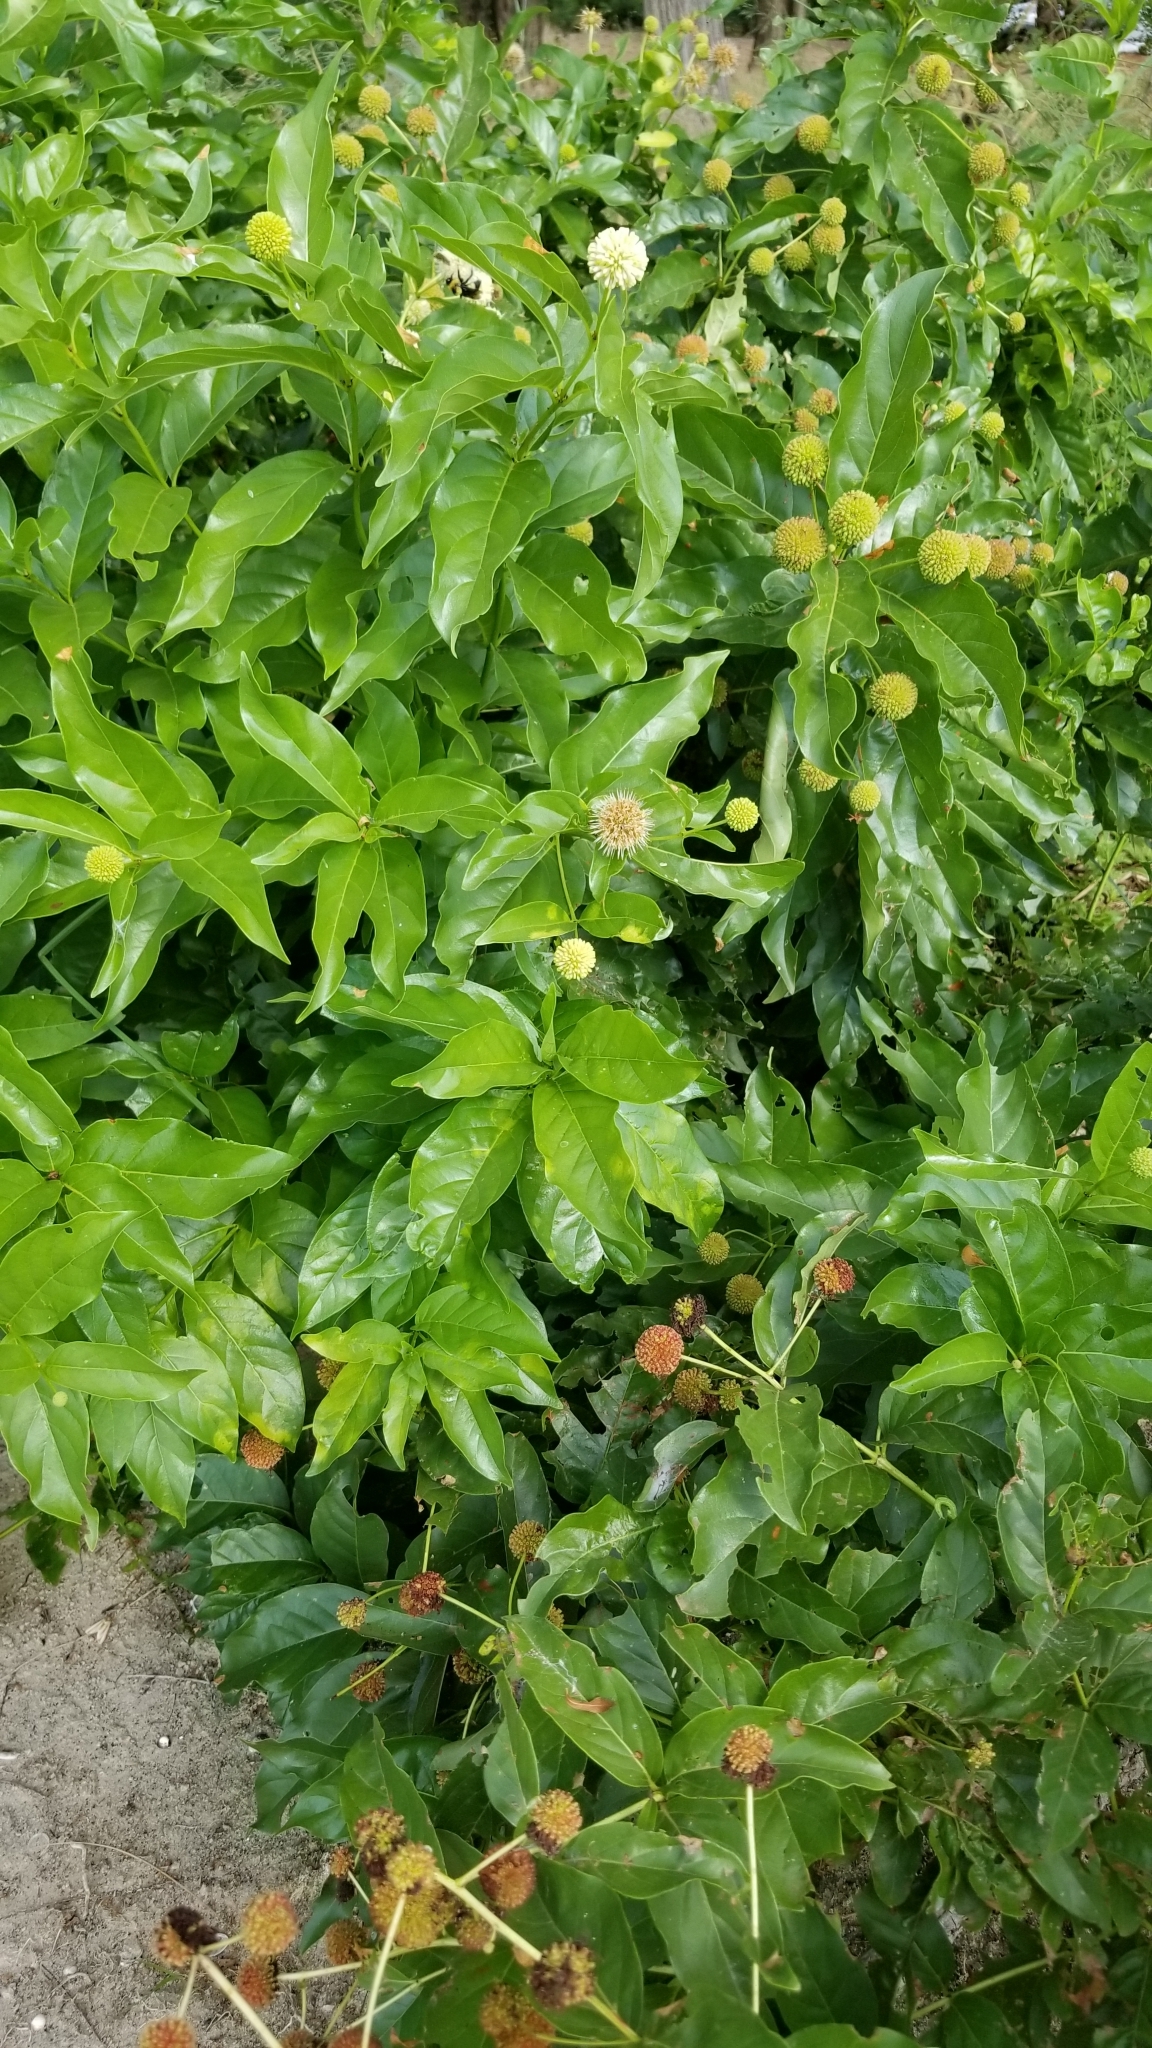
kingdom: Plantae
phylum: Tracheophyta
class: Magnoliopsida
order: Gentianales
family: Rubiaceae
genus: Cephalanthus
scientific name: Cephalanthus occidentalis
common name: Button-willow
